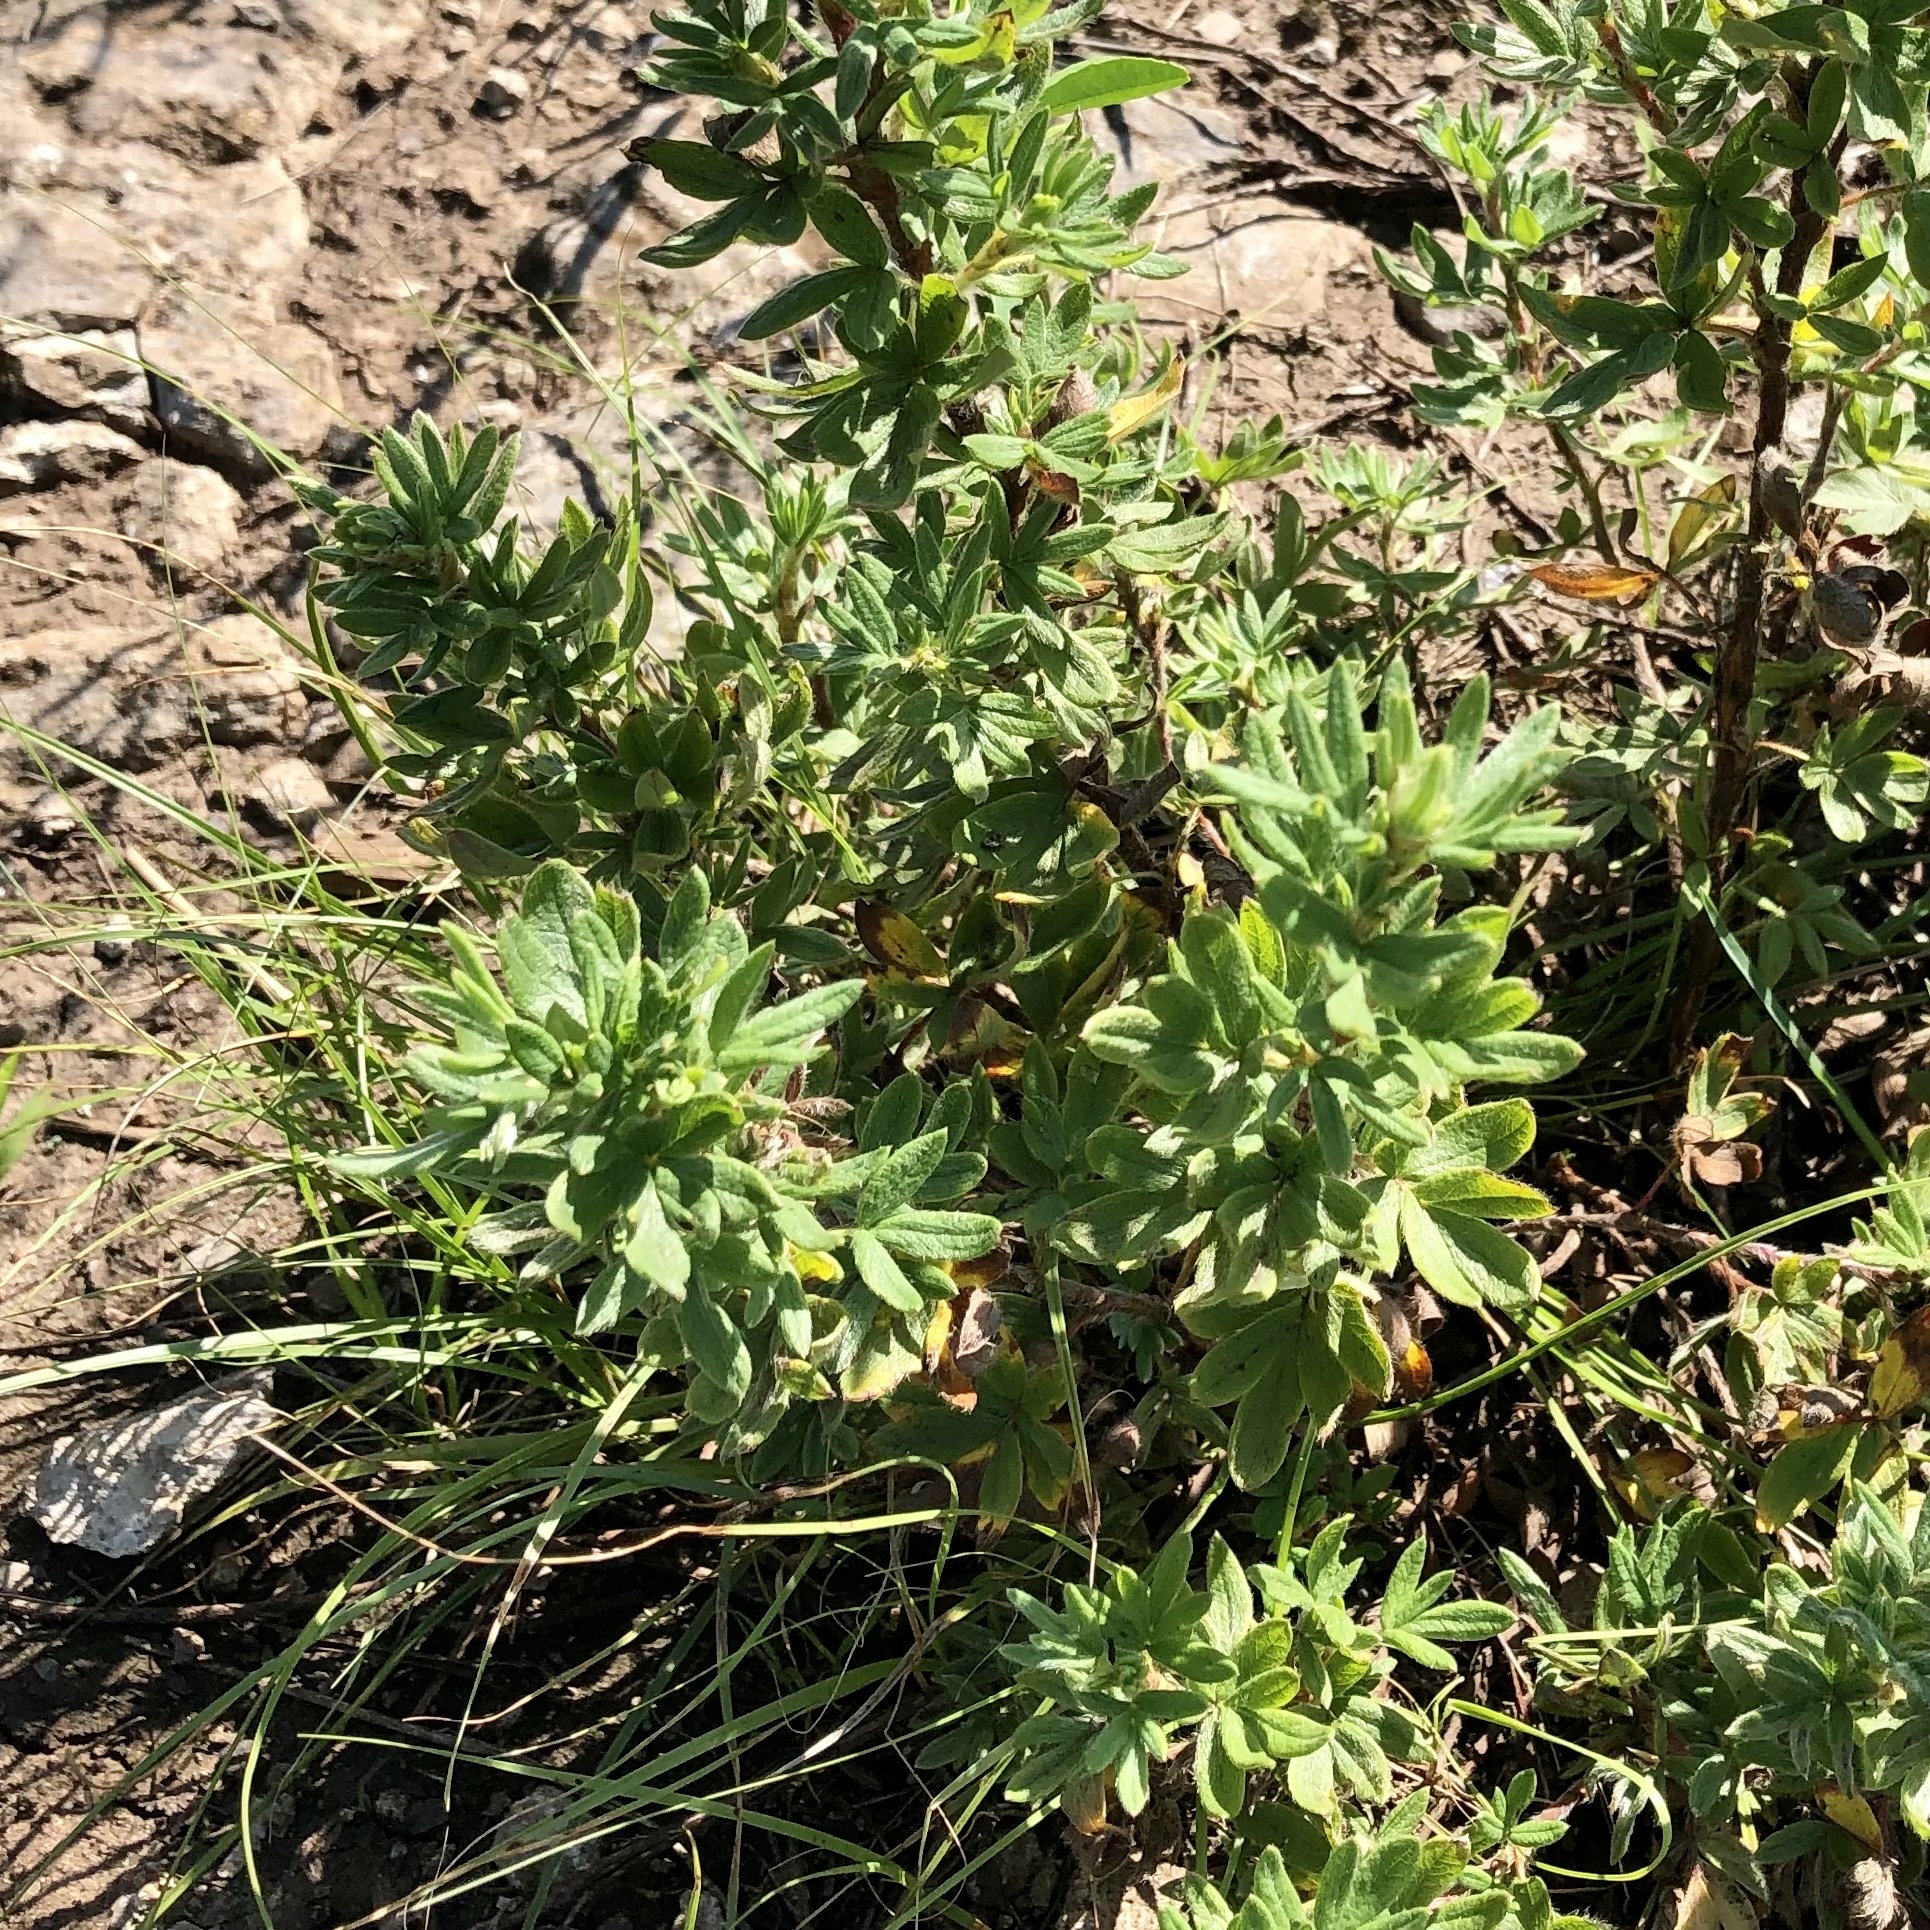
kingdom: Plantae
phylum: Tracheophyta
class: Magnoliopsida
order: Rosales
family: Rosaceae
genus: Dasiphora
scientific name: Dasiphora fruticosa
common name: Shrubby cinquefoil
